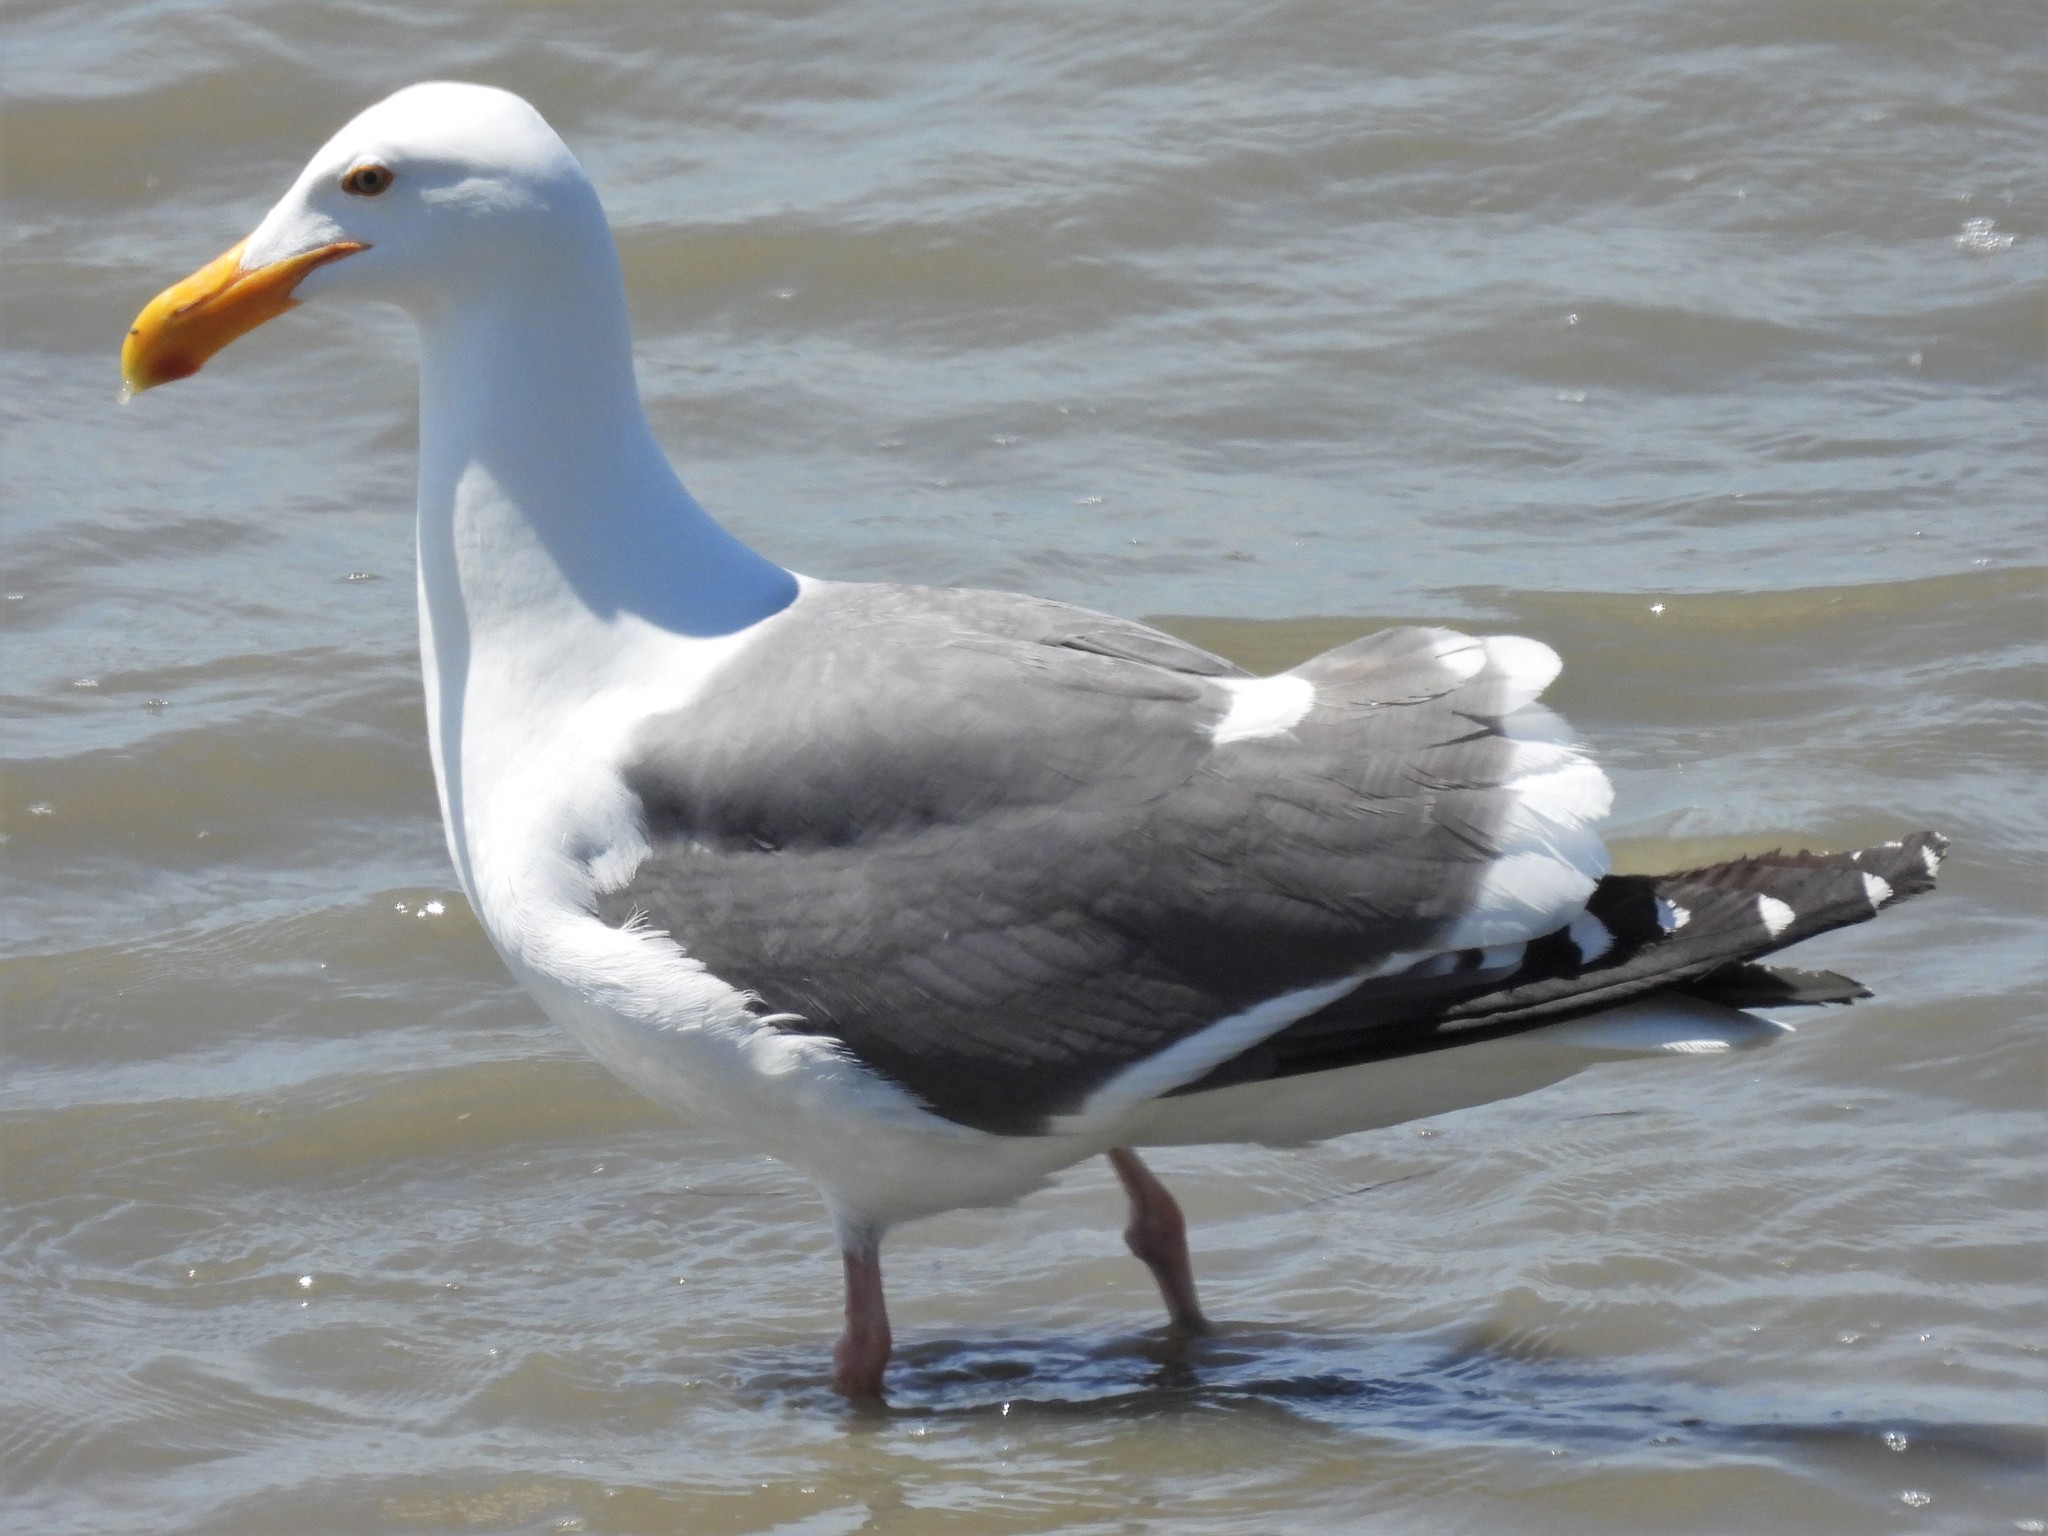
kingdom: Animalia
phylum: Chordata
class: Aves
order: Charadriiformes
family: Laridae
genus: Larus
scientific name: Larus occidentalis
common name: Western gull
